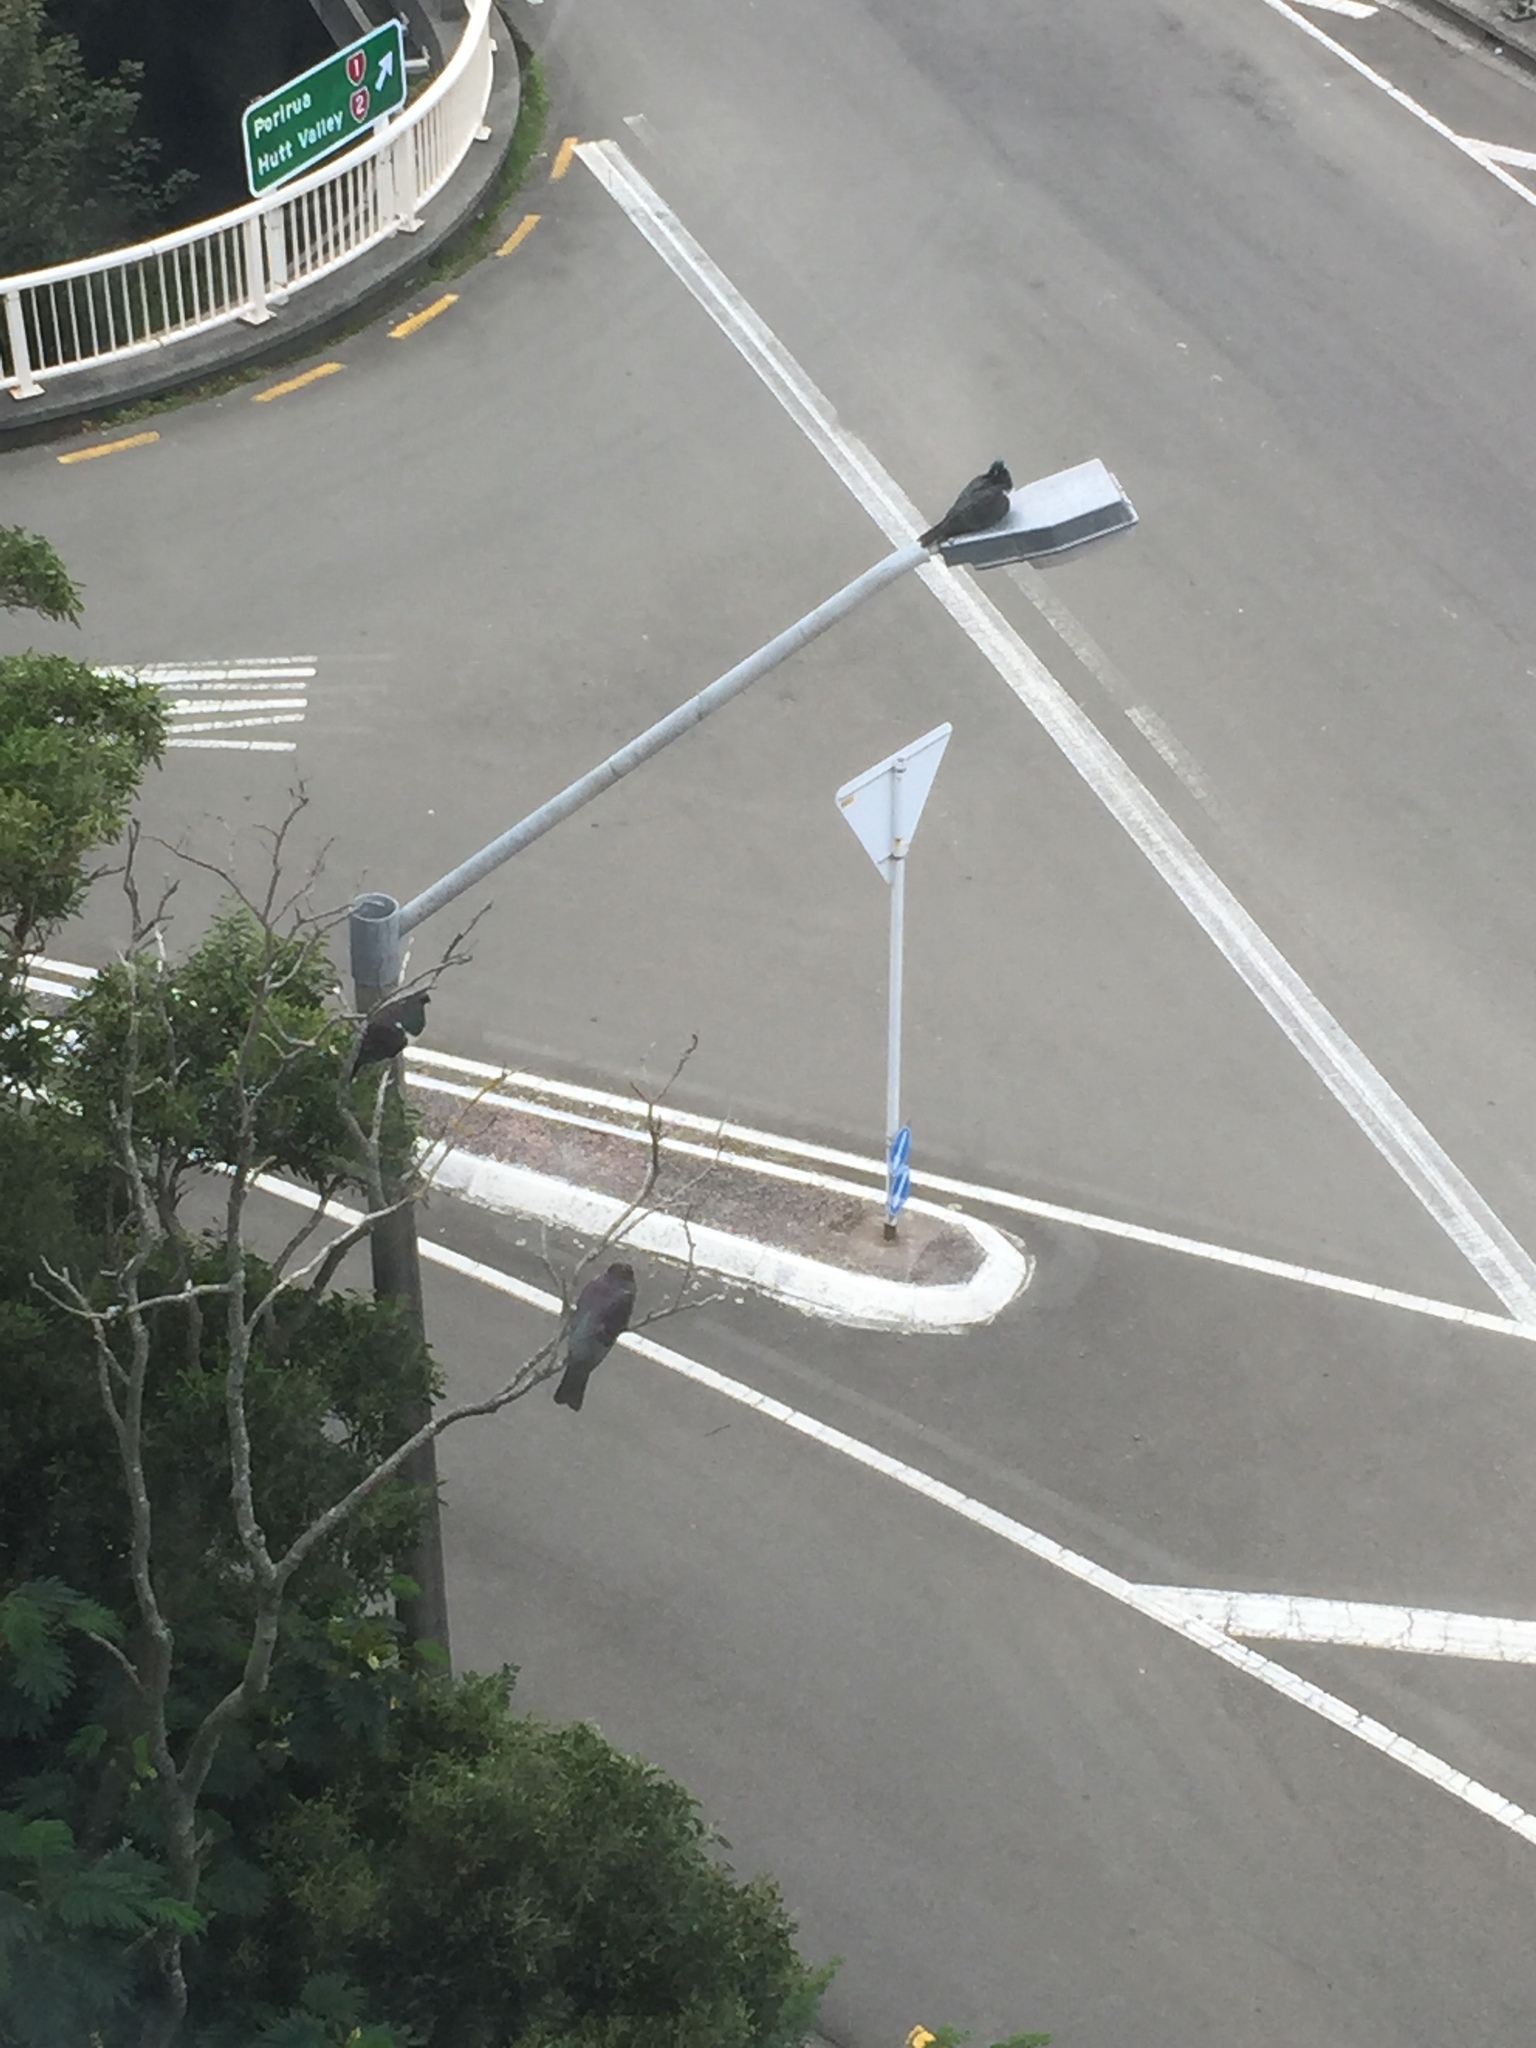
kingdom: Animalia
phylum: Chordata
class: Aves
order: Columbiformes
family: Columbidae
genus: Hemiphaga
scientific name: Hemiphaga novaeseelandiae
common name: New zealand pigeon
